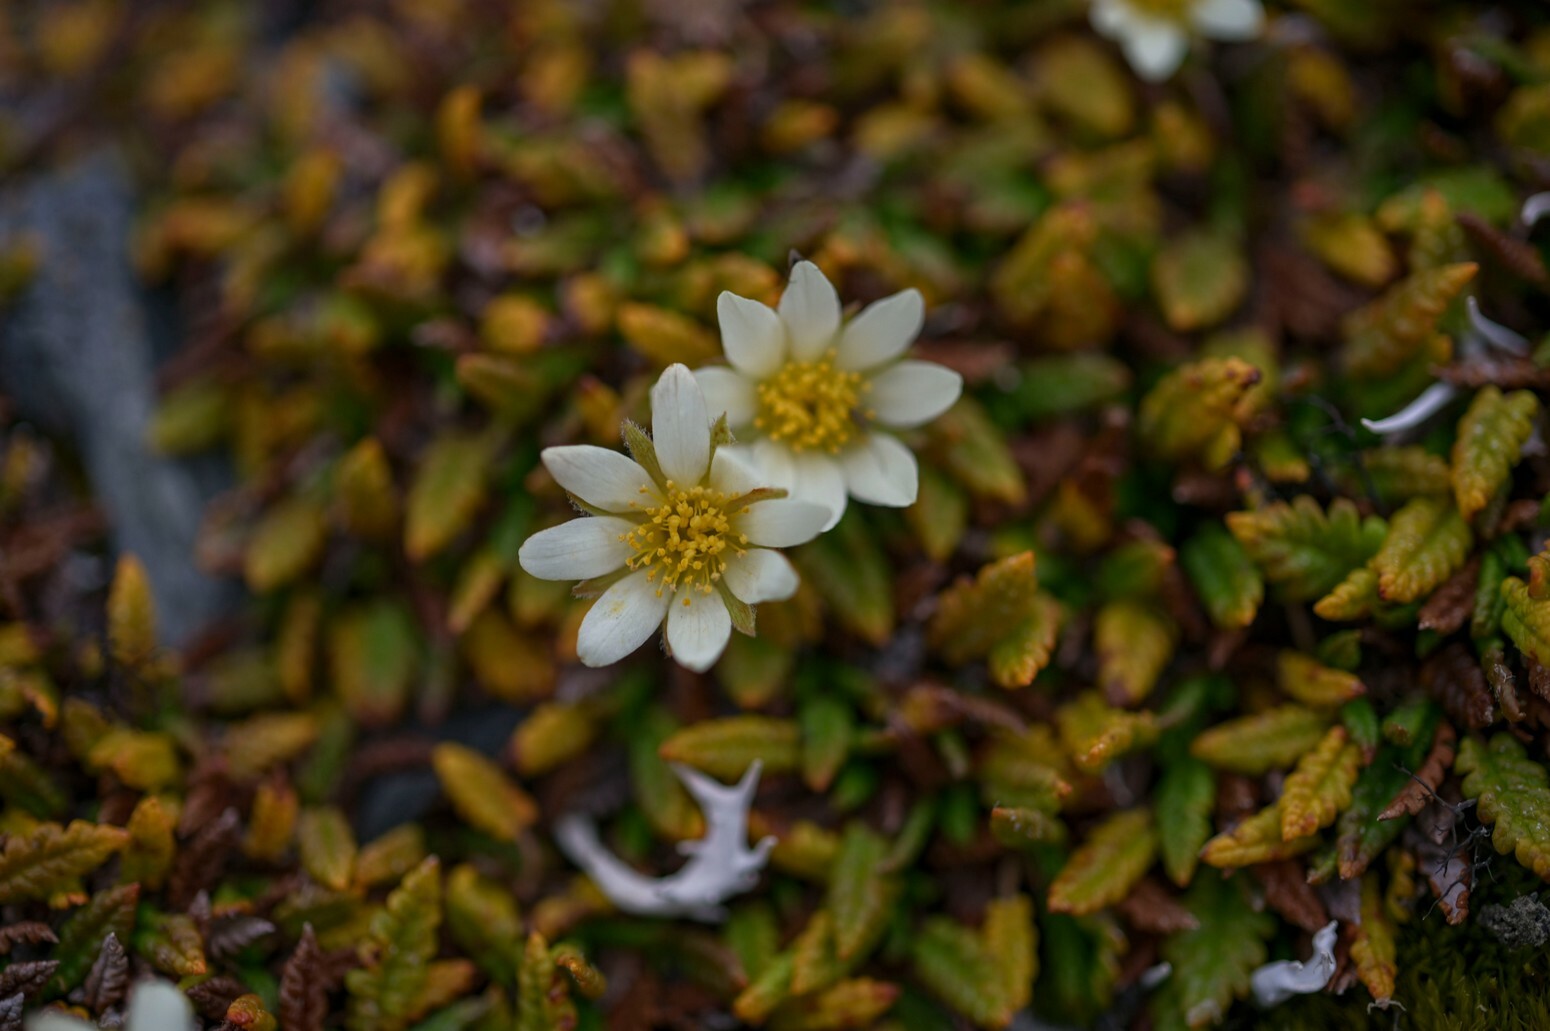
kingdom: Plantae
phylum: Tracheophyta
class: Magnoliopsida
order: Rosales
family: Rosaceae
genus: Dryas
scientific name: Dryas octopetala
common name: Eight-petal mountain-avens
